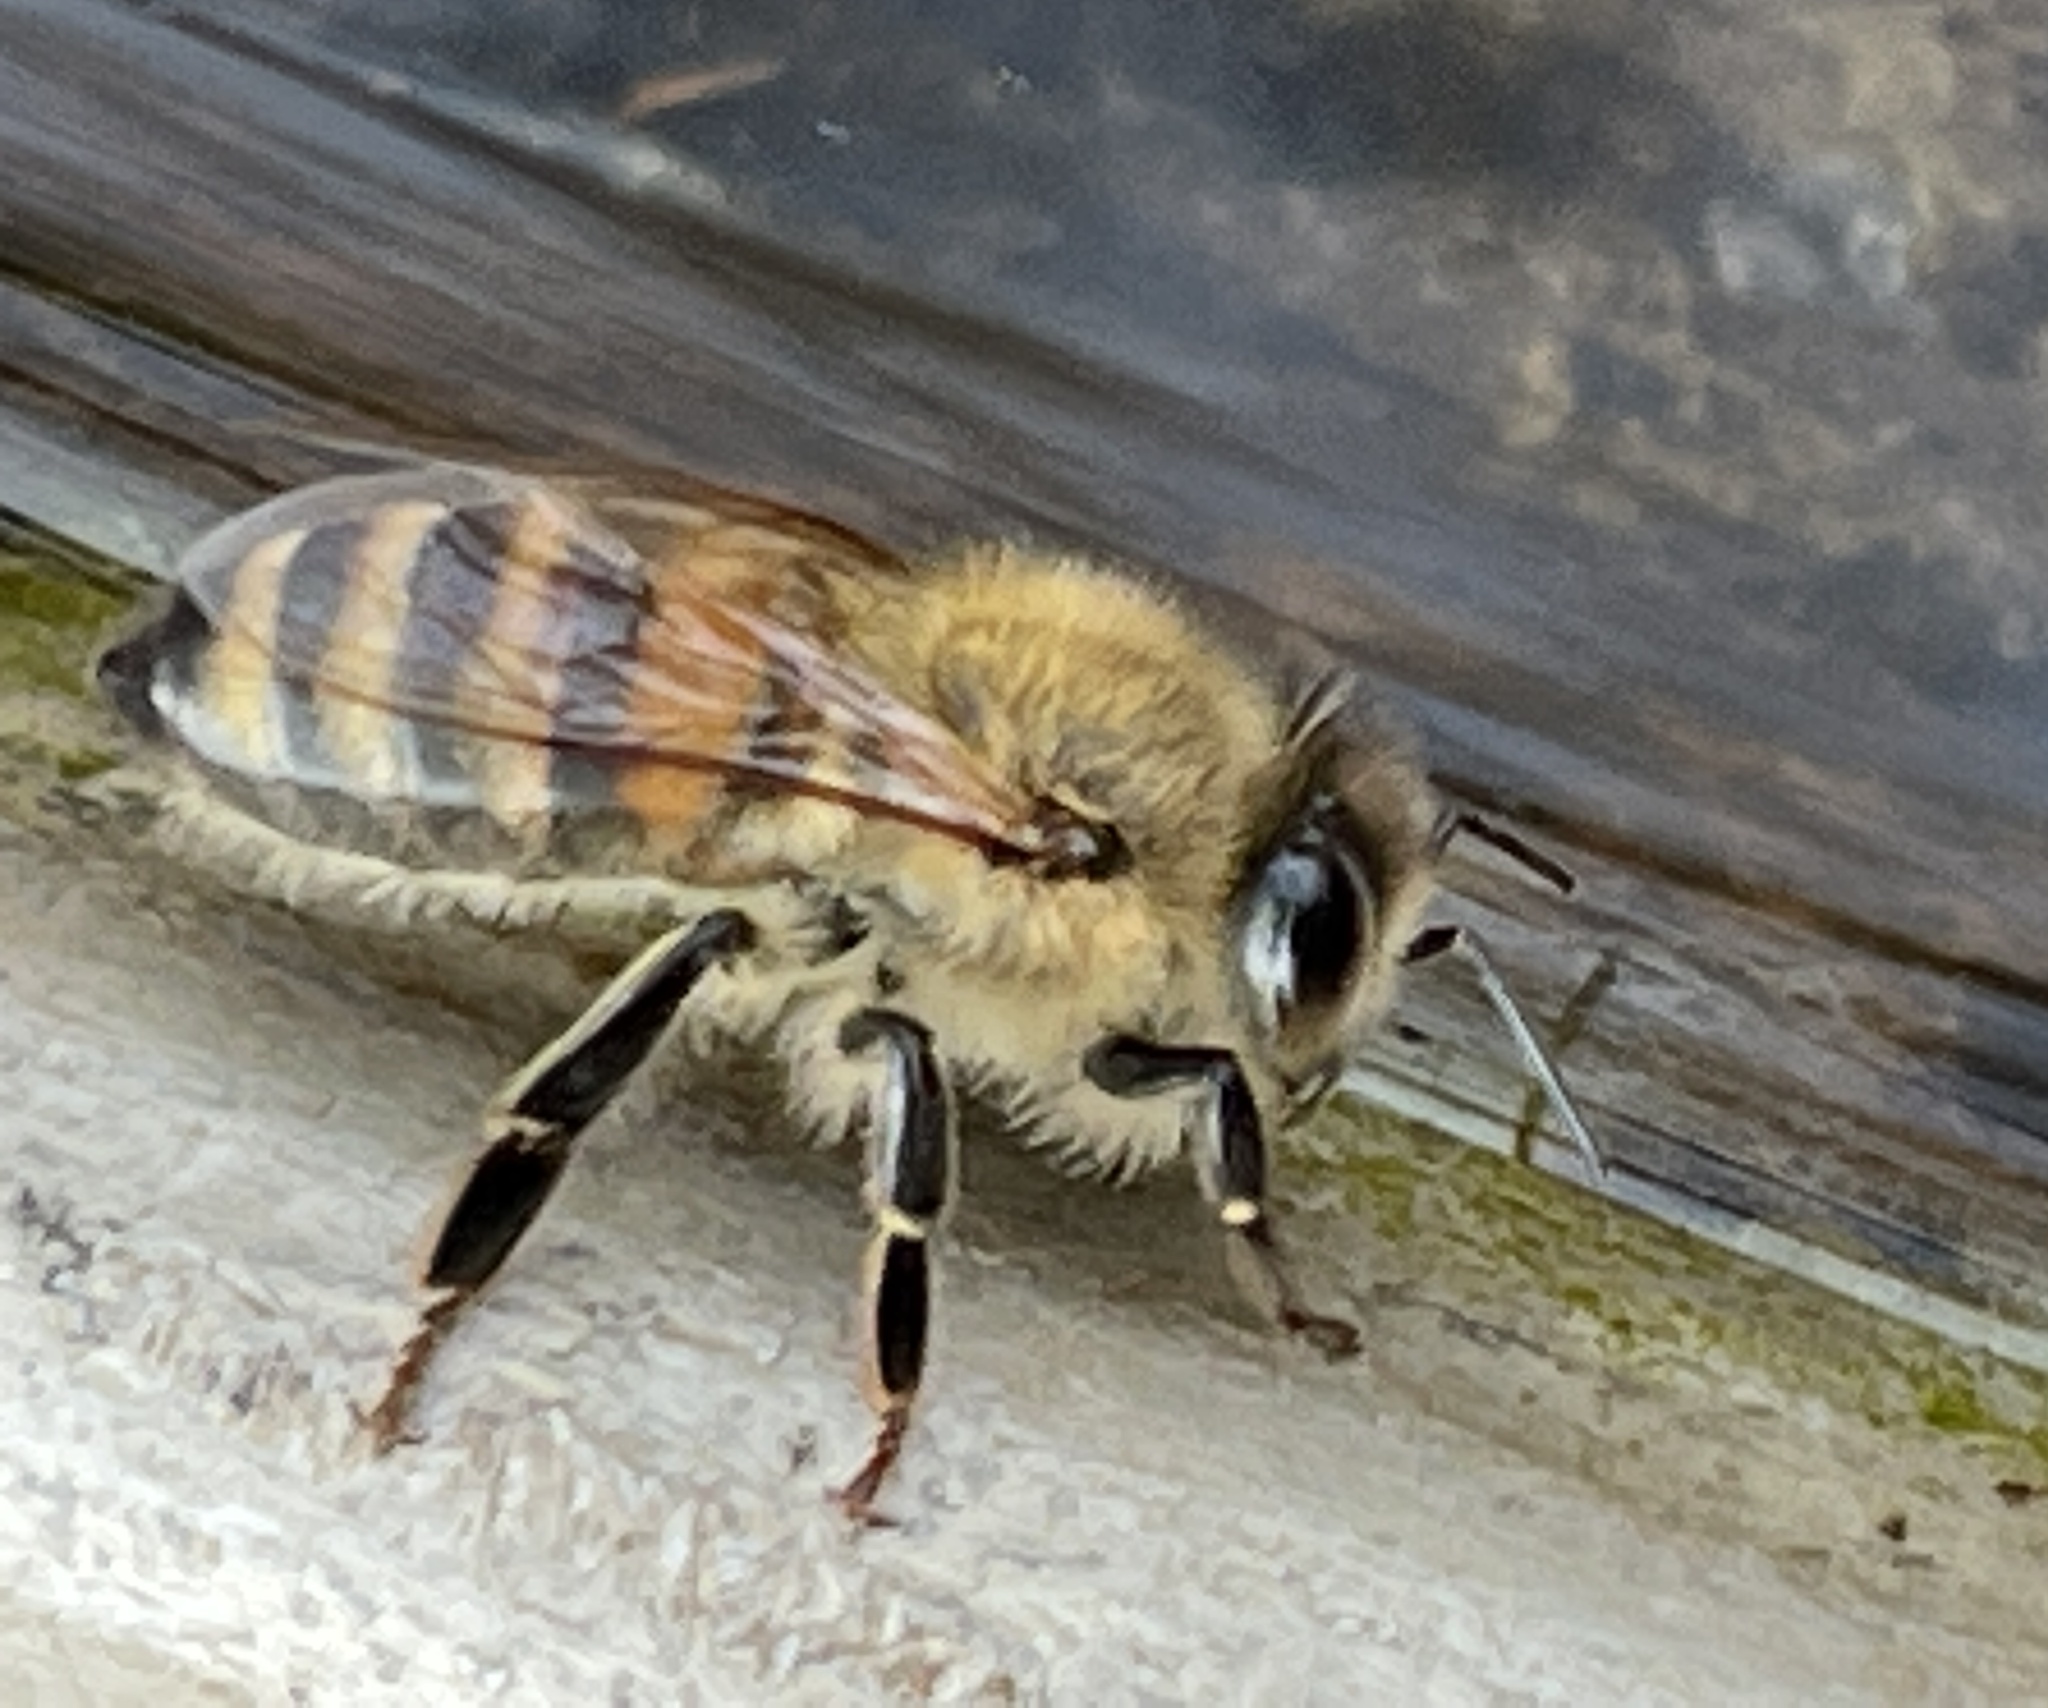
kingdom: Animalia
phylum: Arthropoda
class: Insecta
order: Hymenoptera
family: Apidae
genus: Apis
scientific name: Apis mellifera
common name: Honey bee
